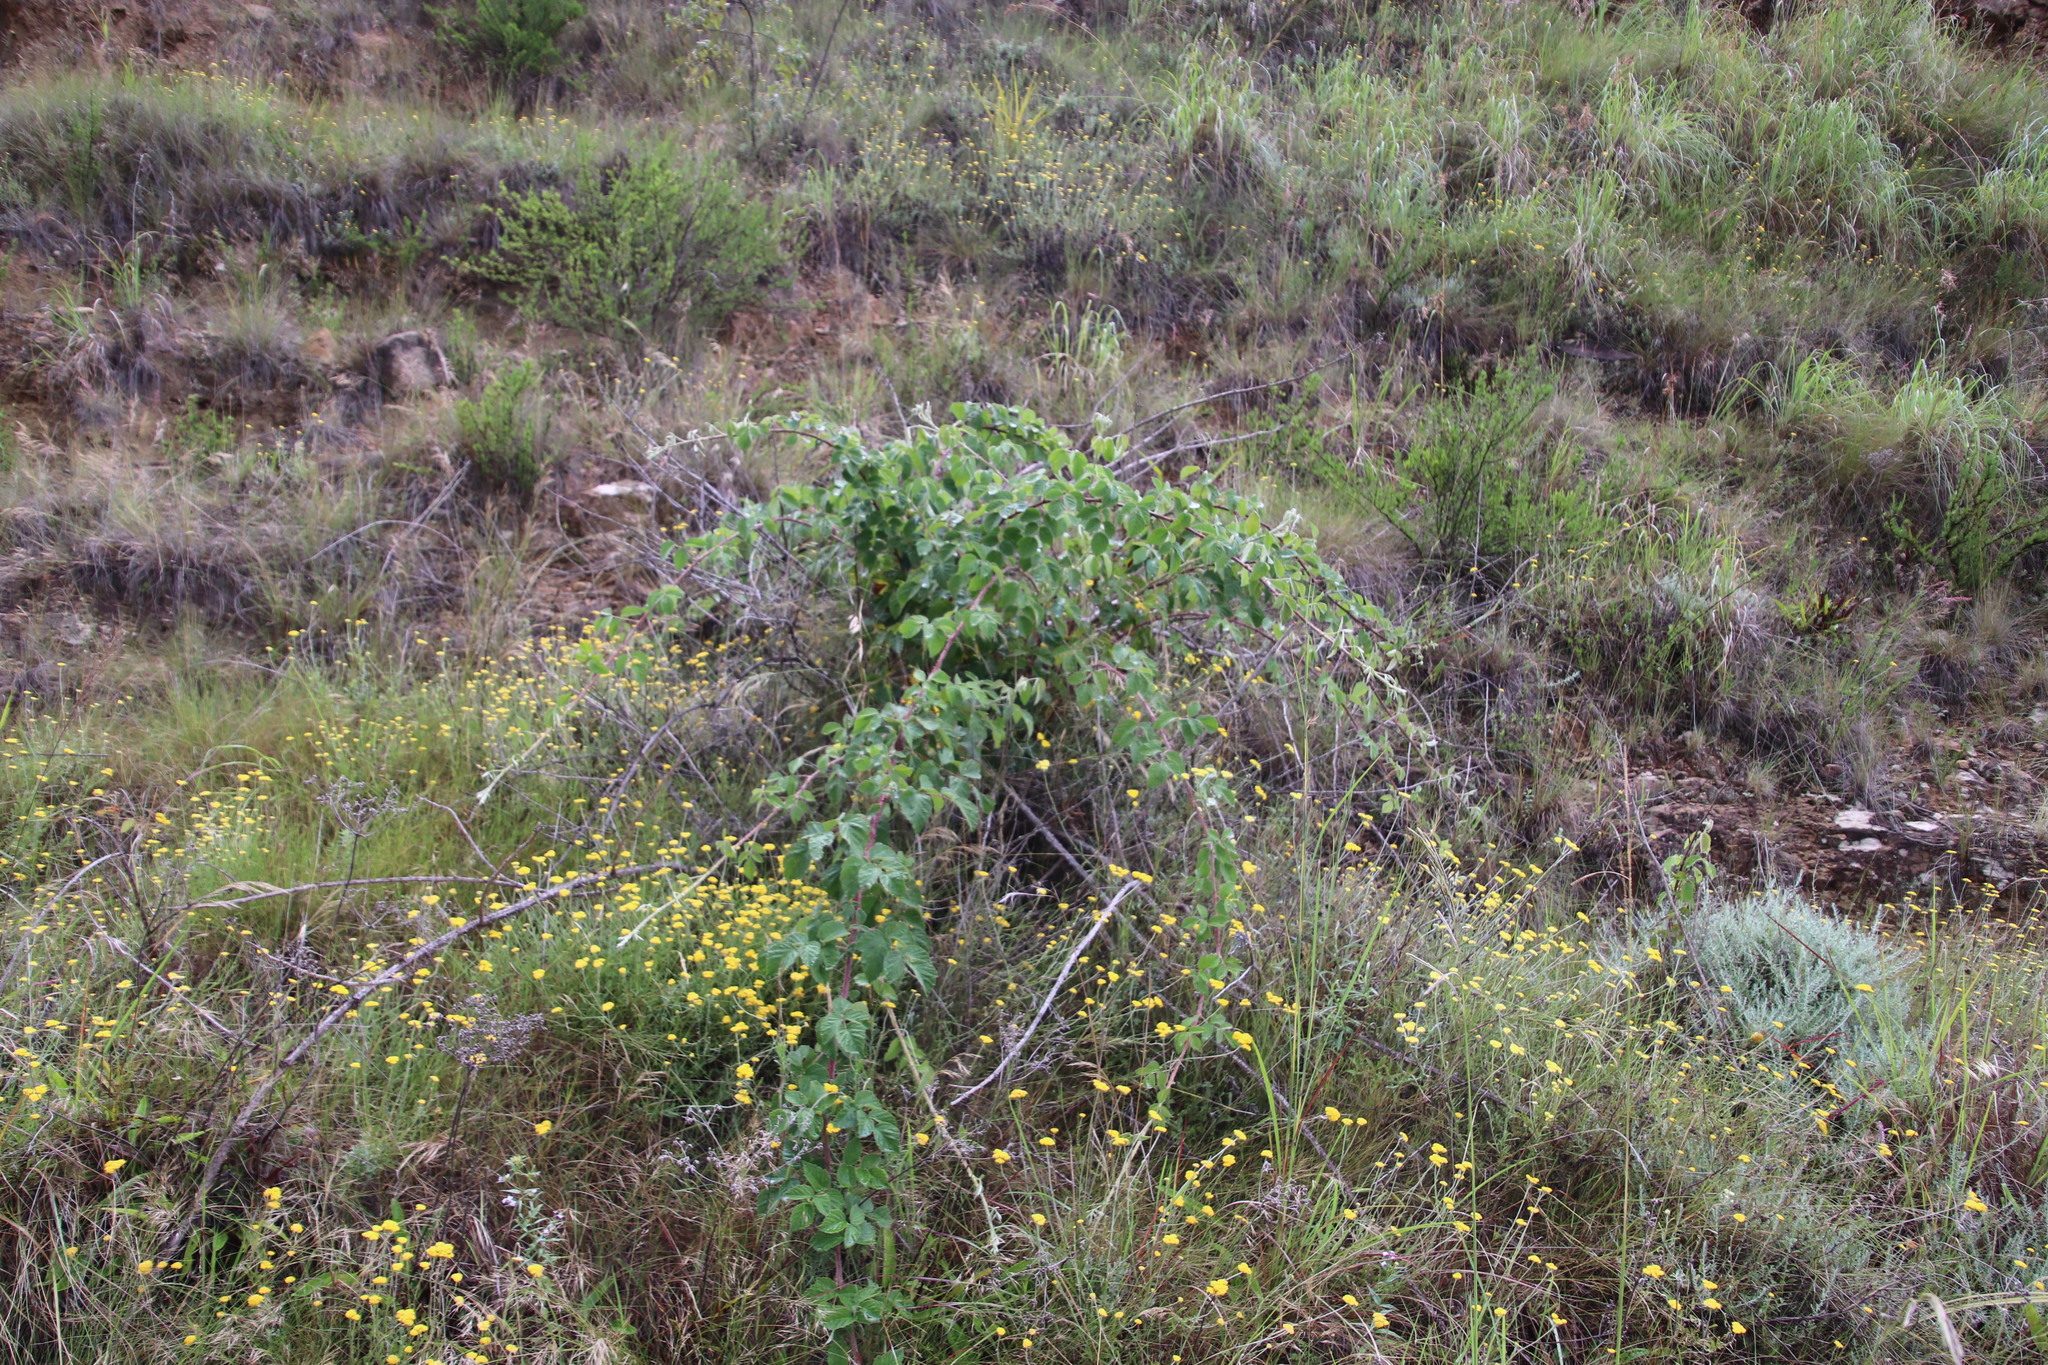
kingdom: Plantae
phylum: Tracheophyta
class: Magnoliopsida
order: Rosales
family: Rosaceae
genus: Rubus
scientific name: Rubus rigidus
